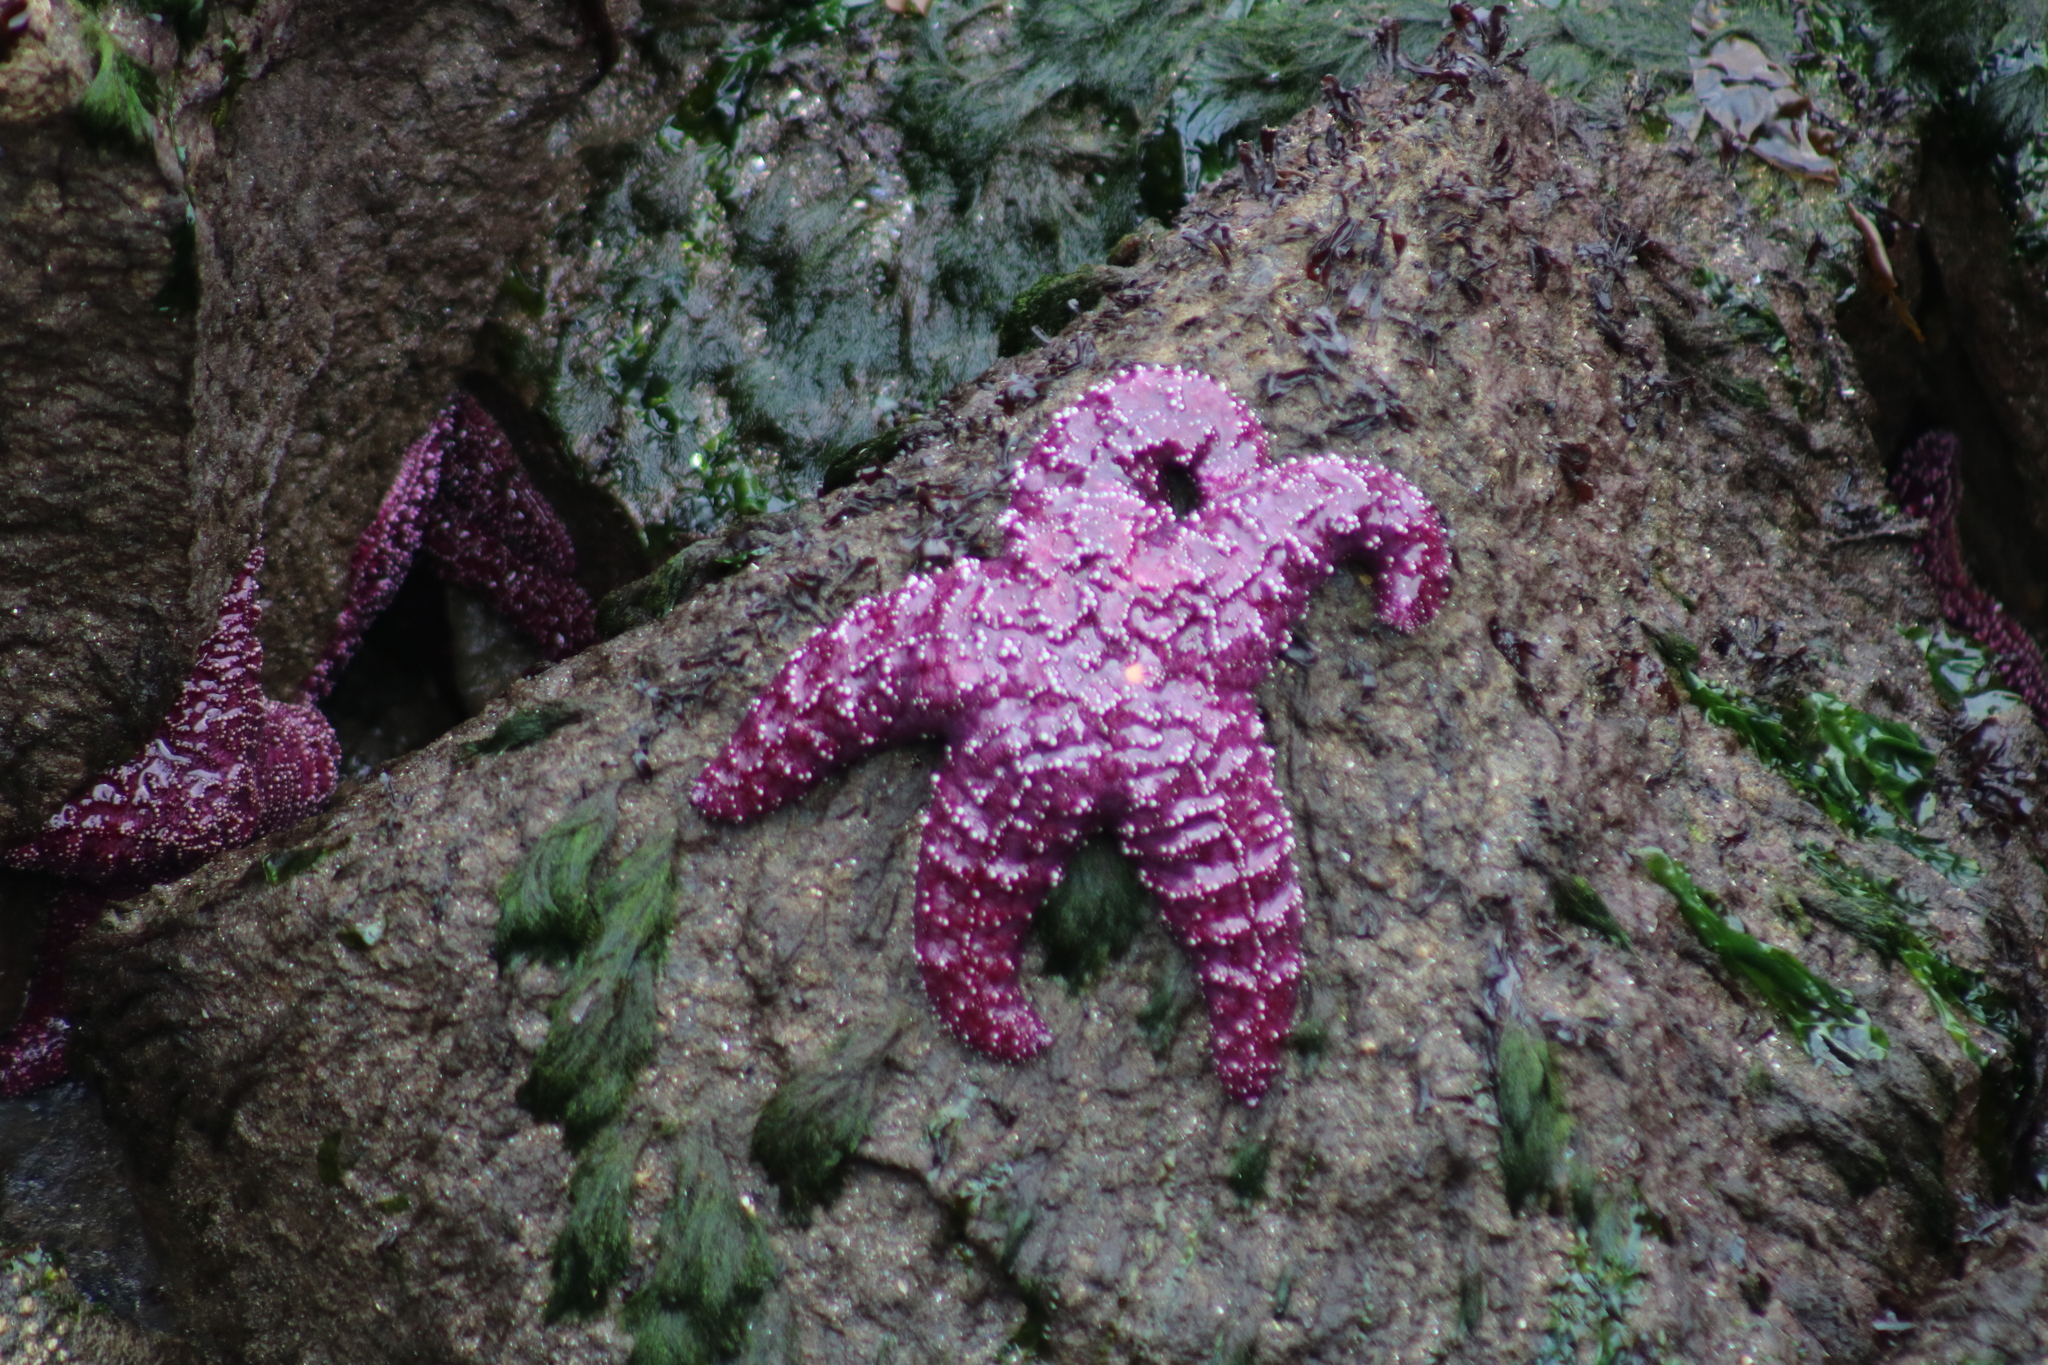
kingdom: Animalia
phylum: Echinodermata
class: Asteroidea
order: Forcipulatida
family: Asteriidae
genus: Pisaster
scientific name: Pisaster ochraceus
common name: Ochre stars
